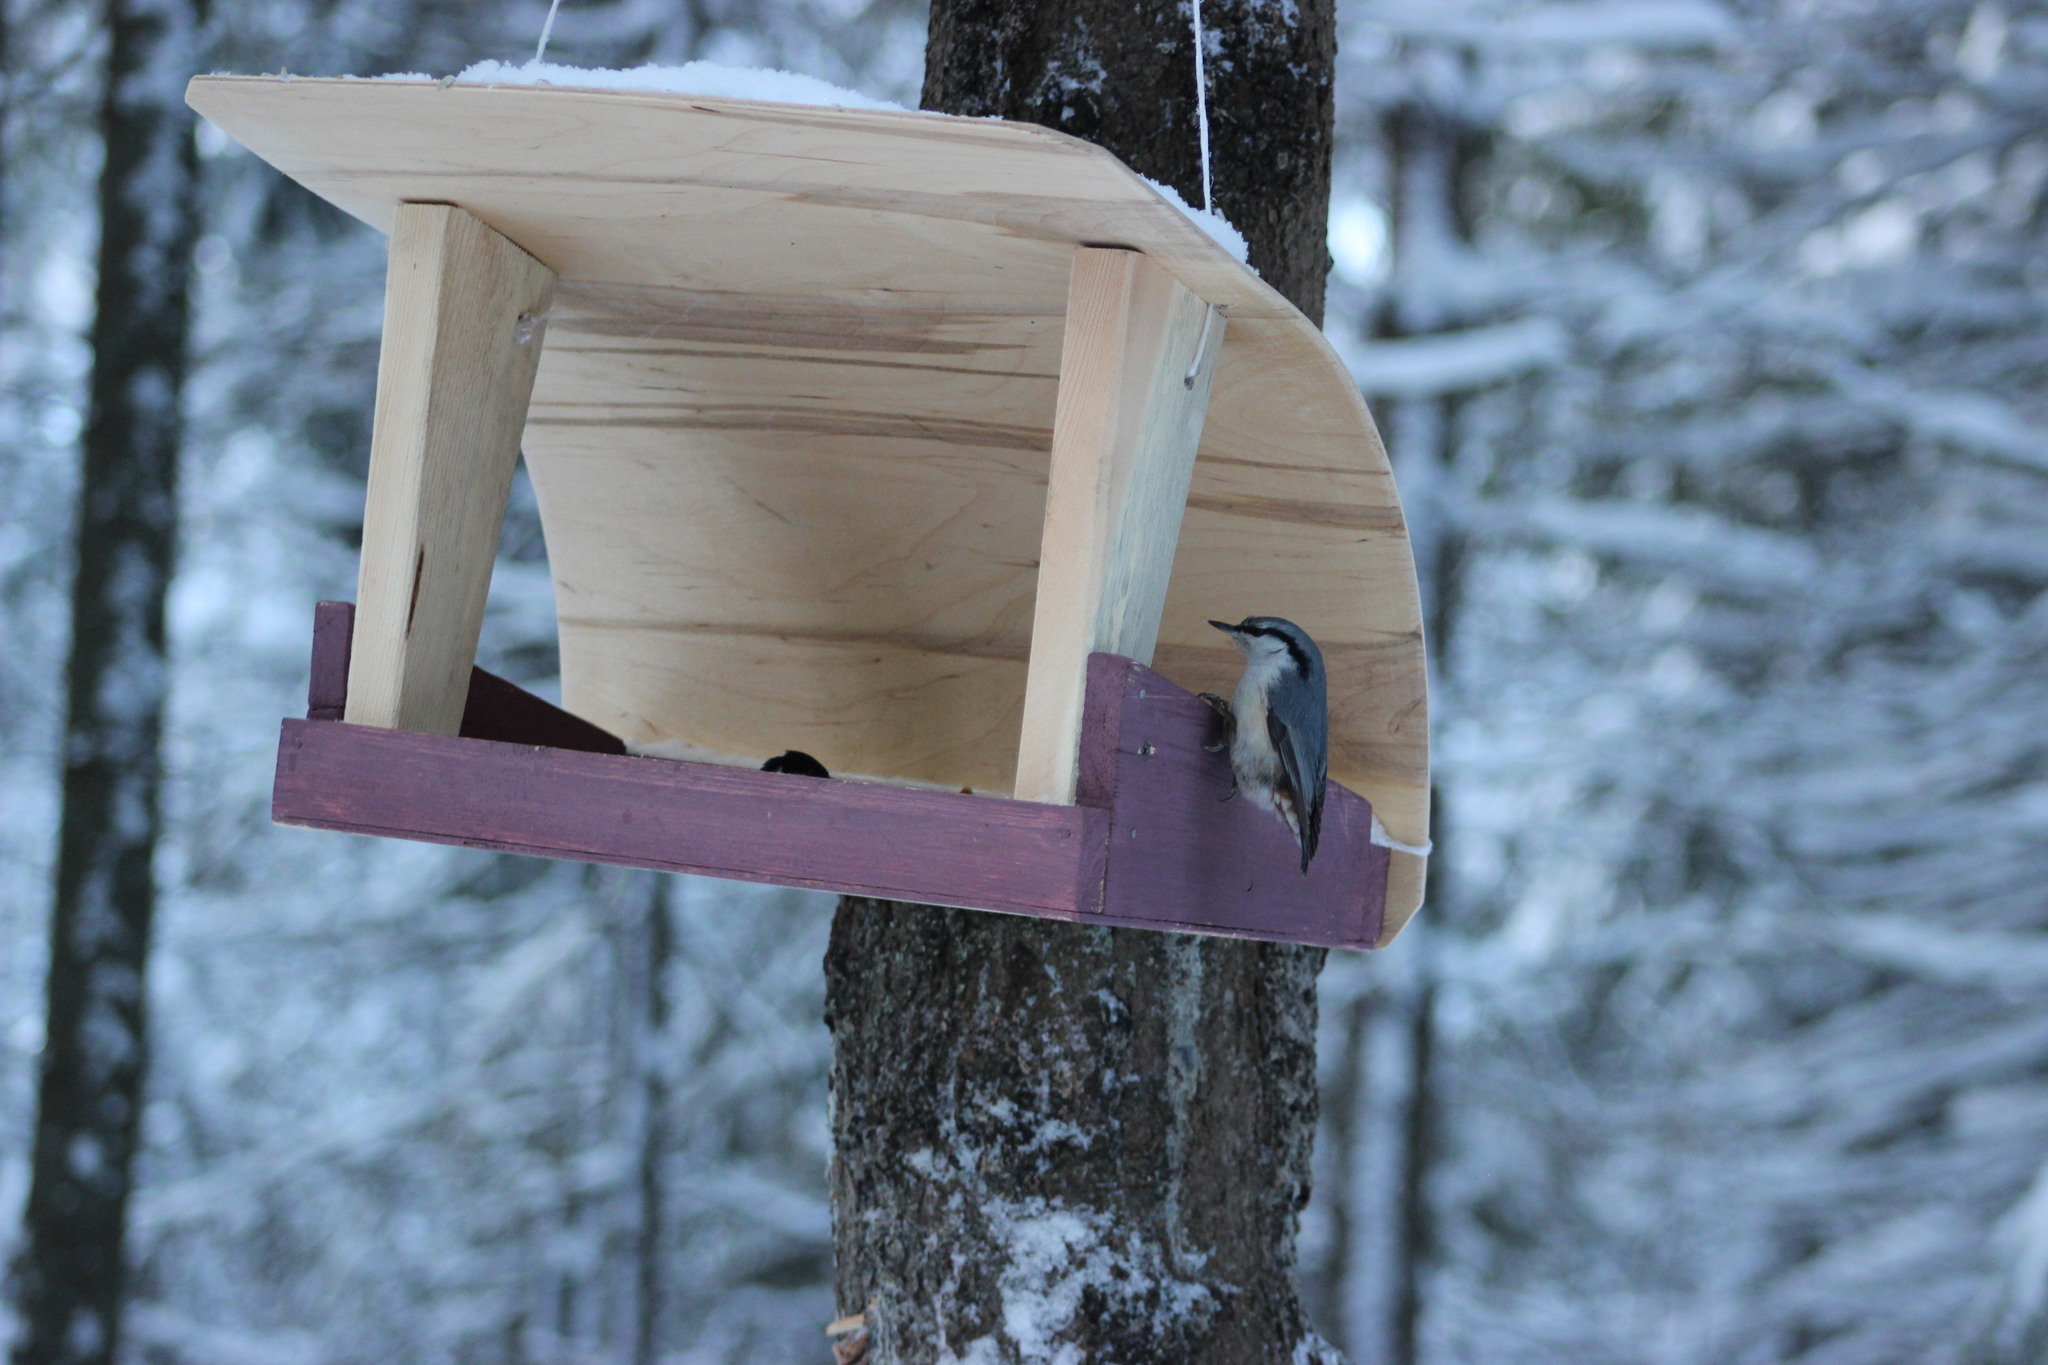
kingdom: Animalia
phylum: Chordata
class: Aves
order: Passeriformes
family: Sittidae
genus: Sitta
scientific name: Sitta europaea
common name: Eurasian nuthatch
